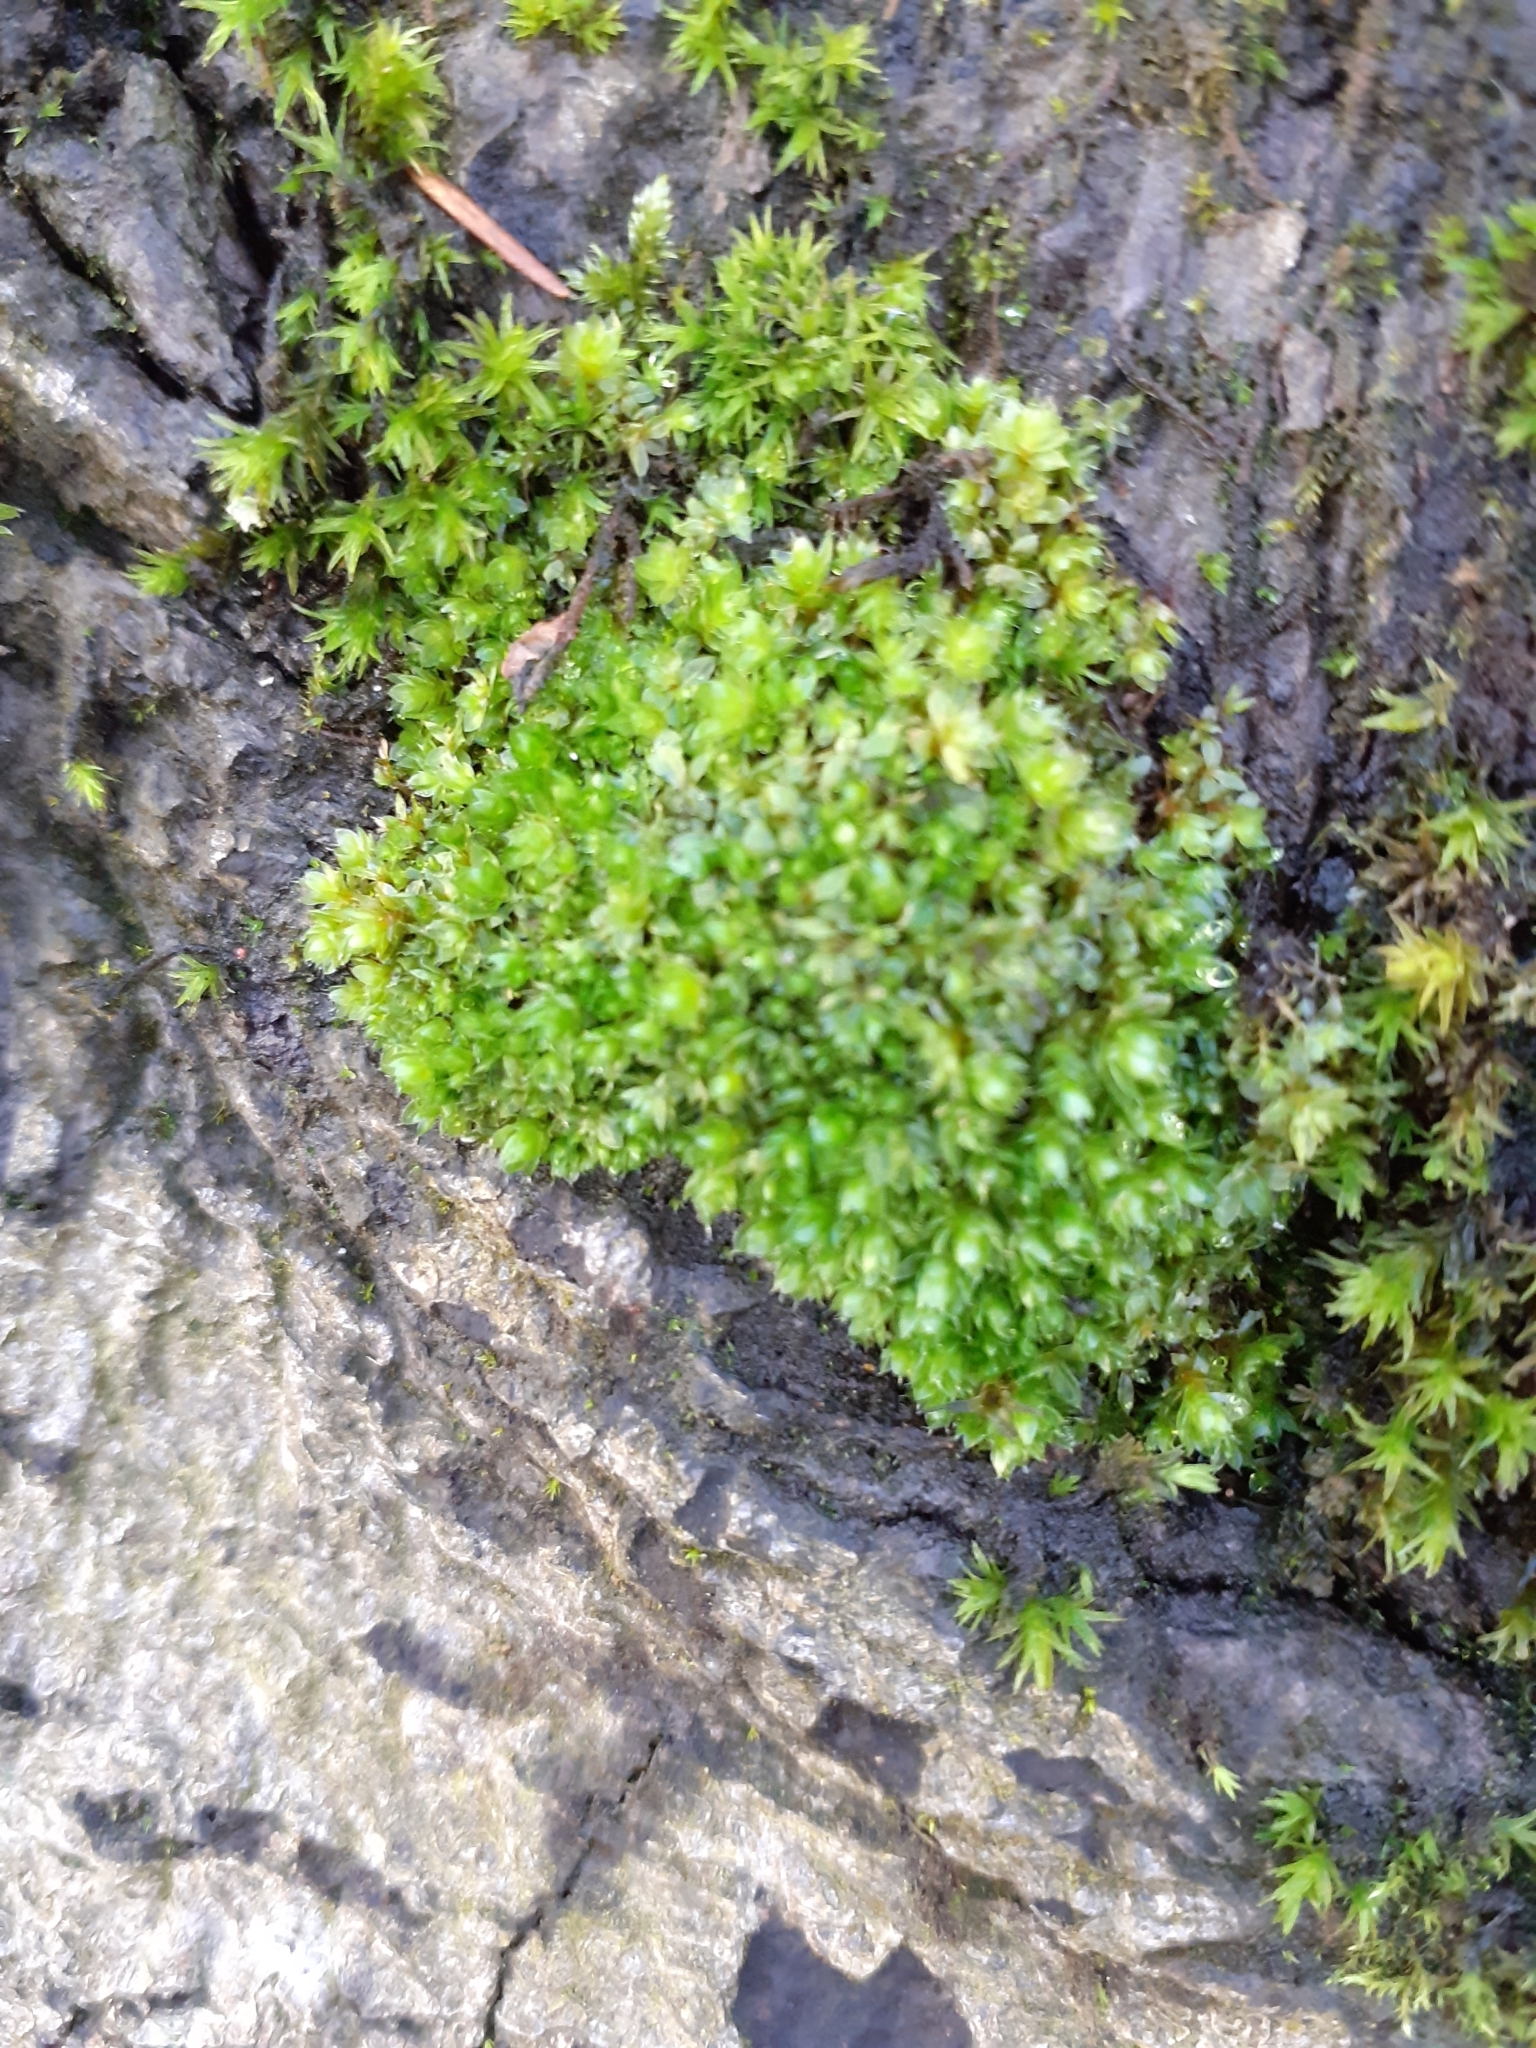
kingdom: Plantae
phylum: Bryophyta
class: Bryopsida
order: Bryales
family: Bryaceae
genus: Rosulabryum
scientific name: Rosulabryum capillare
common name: Capillary thread-moss
